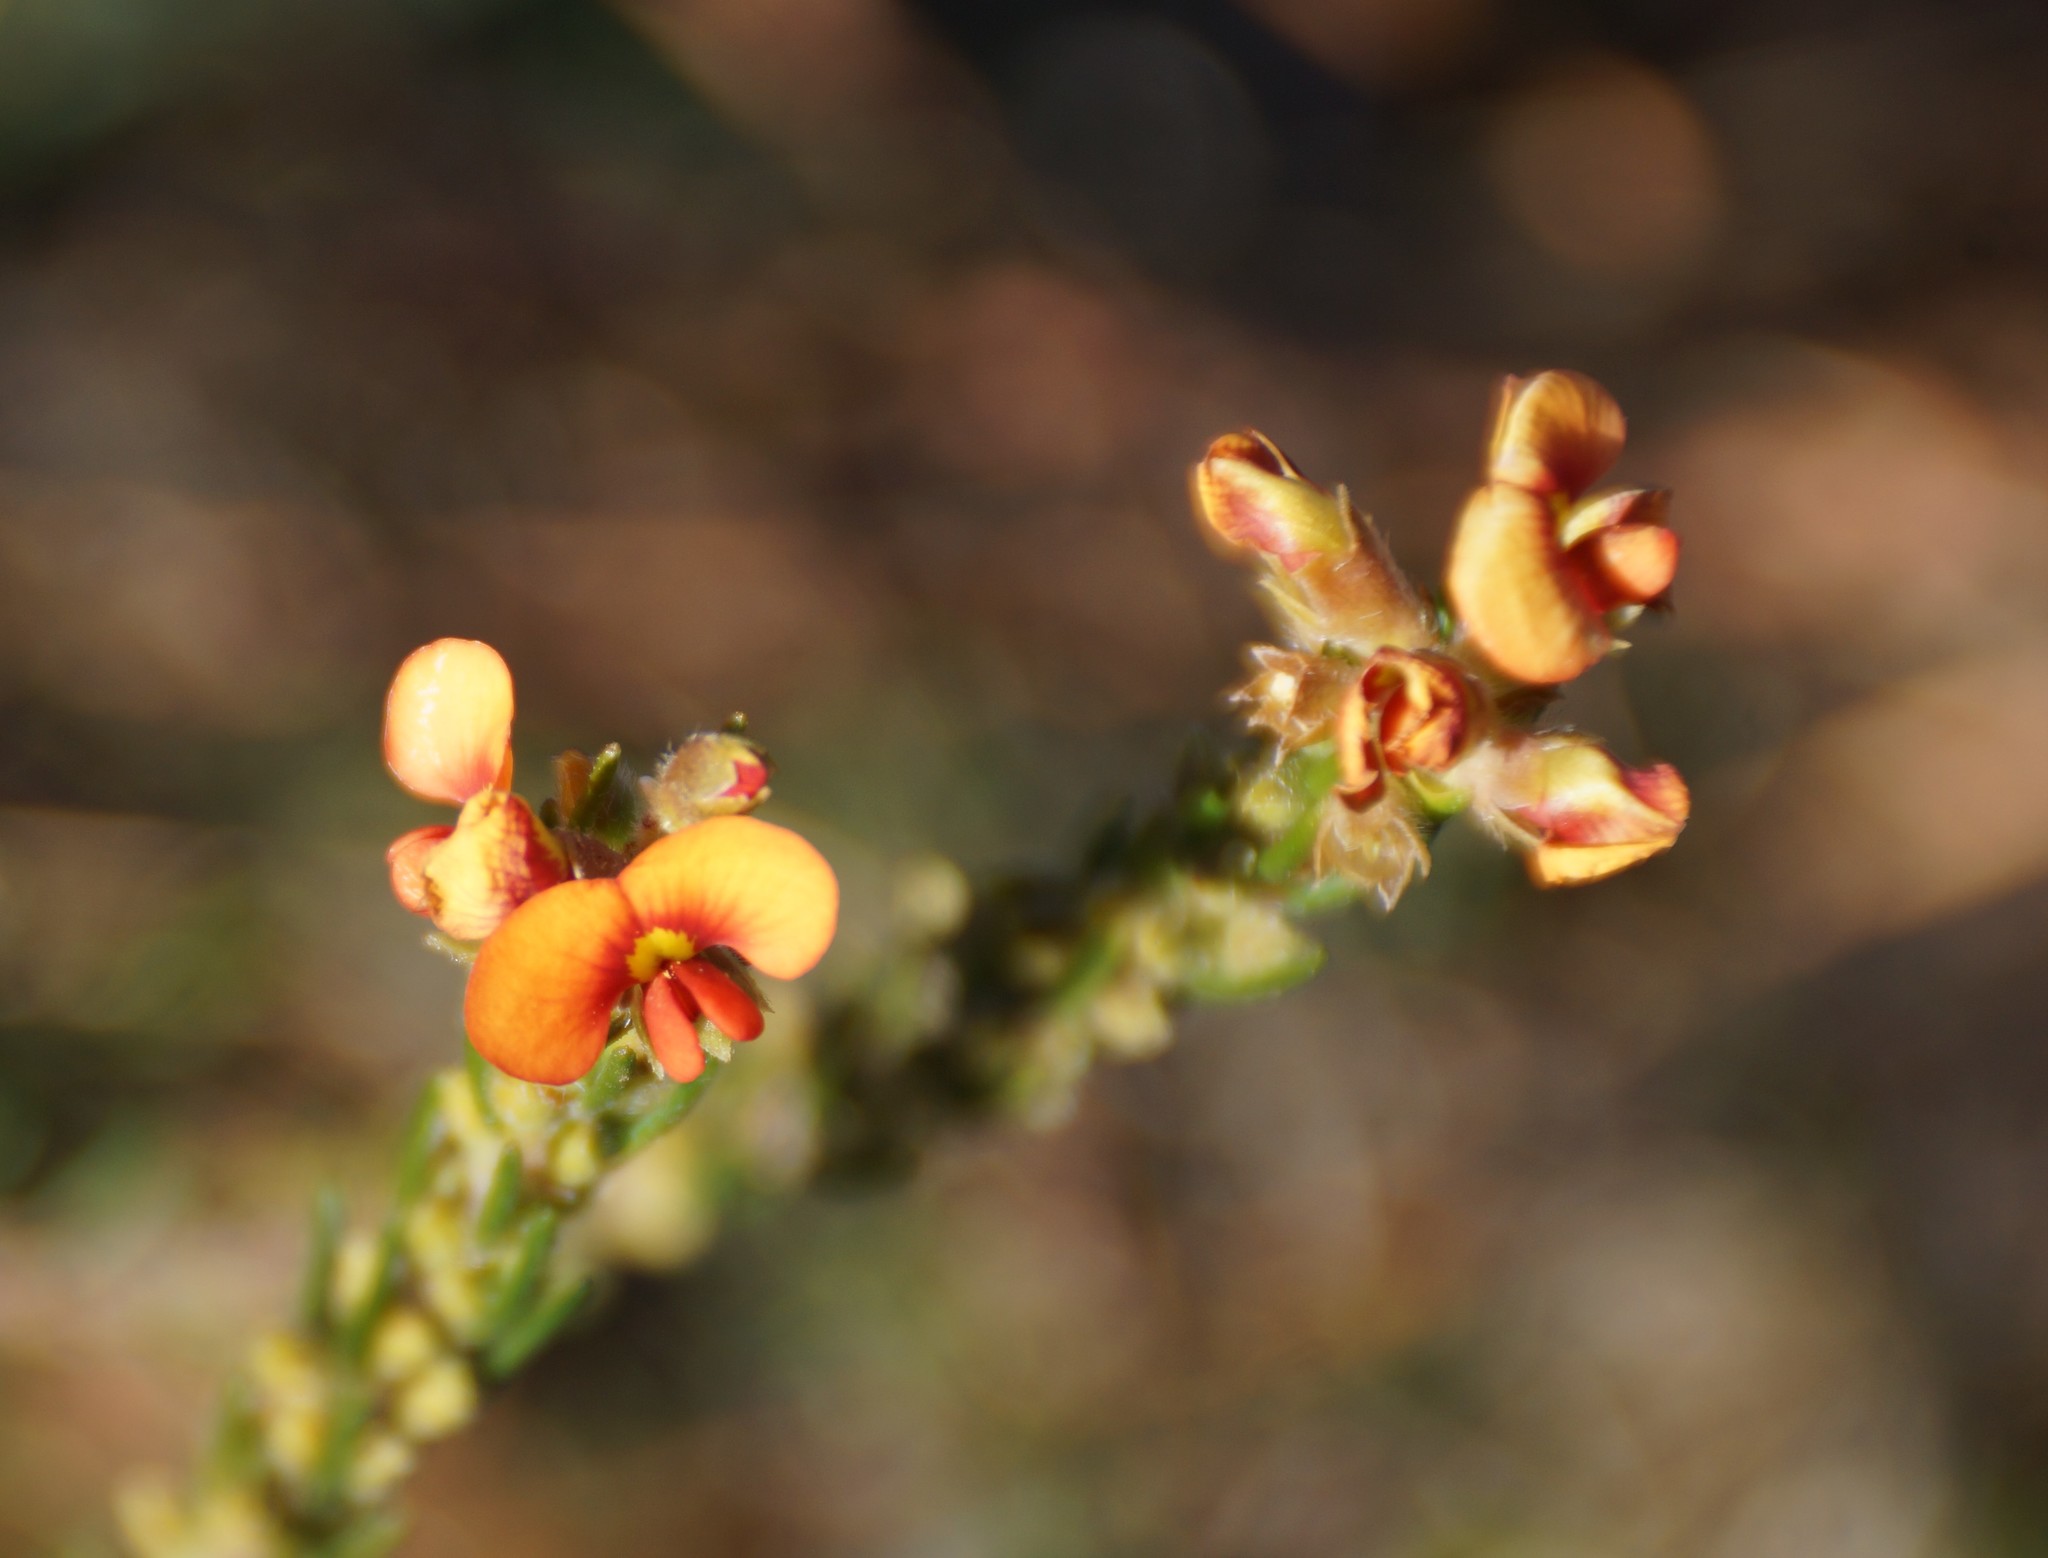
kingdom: Plantae
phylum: Tracheophyta
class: Magnoliopsida
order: Fabales
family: Fabaceae
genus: Dillwynia
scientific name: Dillwynia sericea
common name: Showy parrot-pea
